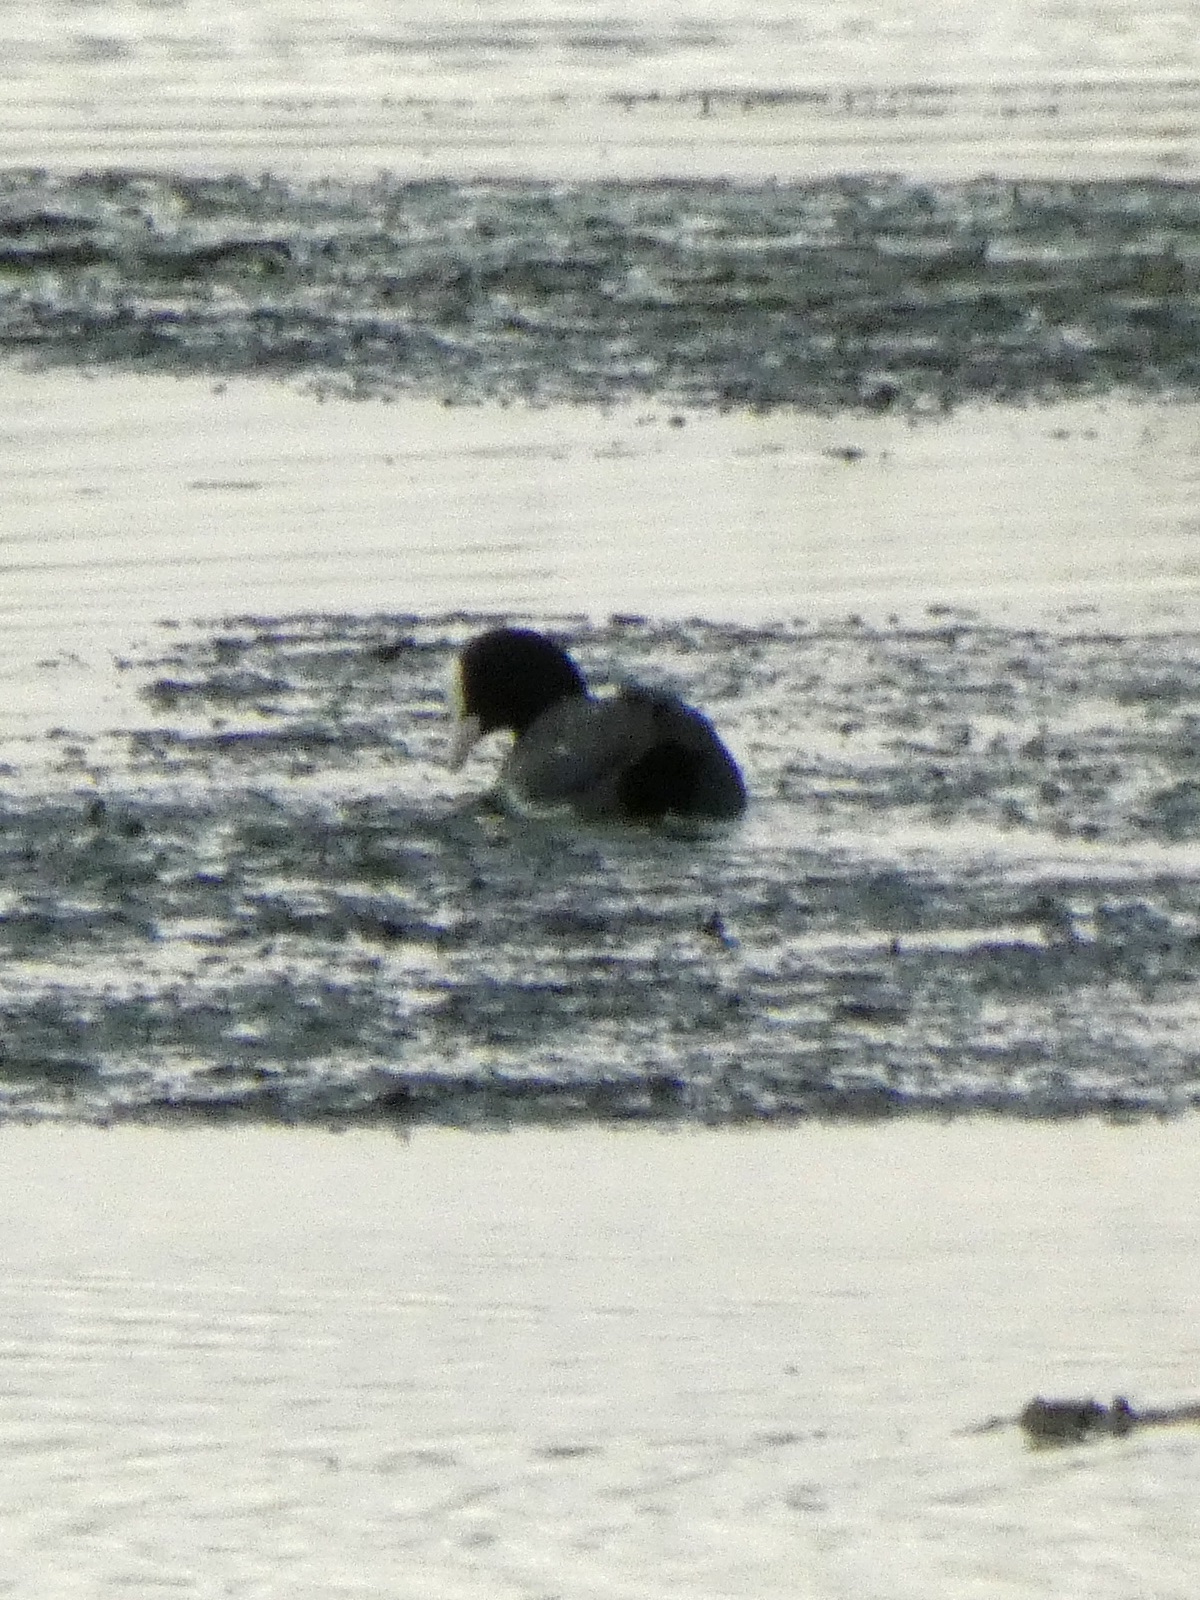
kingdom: Animalia
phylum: Chordata
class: Aves
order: Gruiformes
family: Rallidae
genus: Fulica
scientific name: Fulica atra
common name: Eurasian coot
